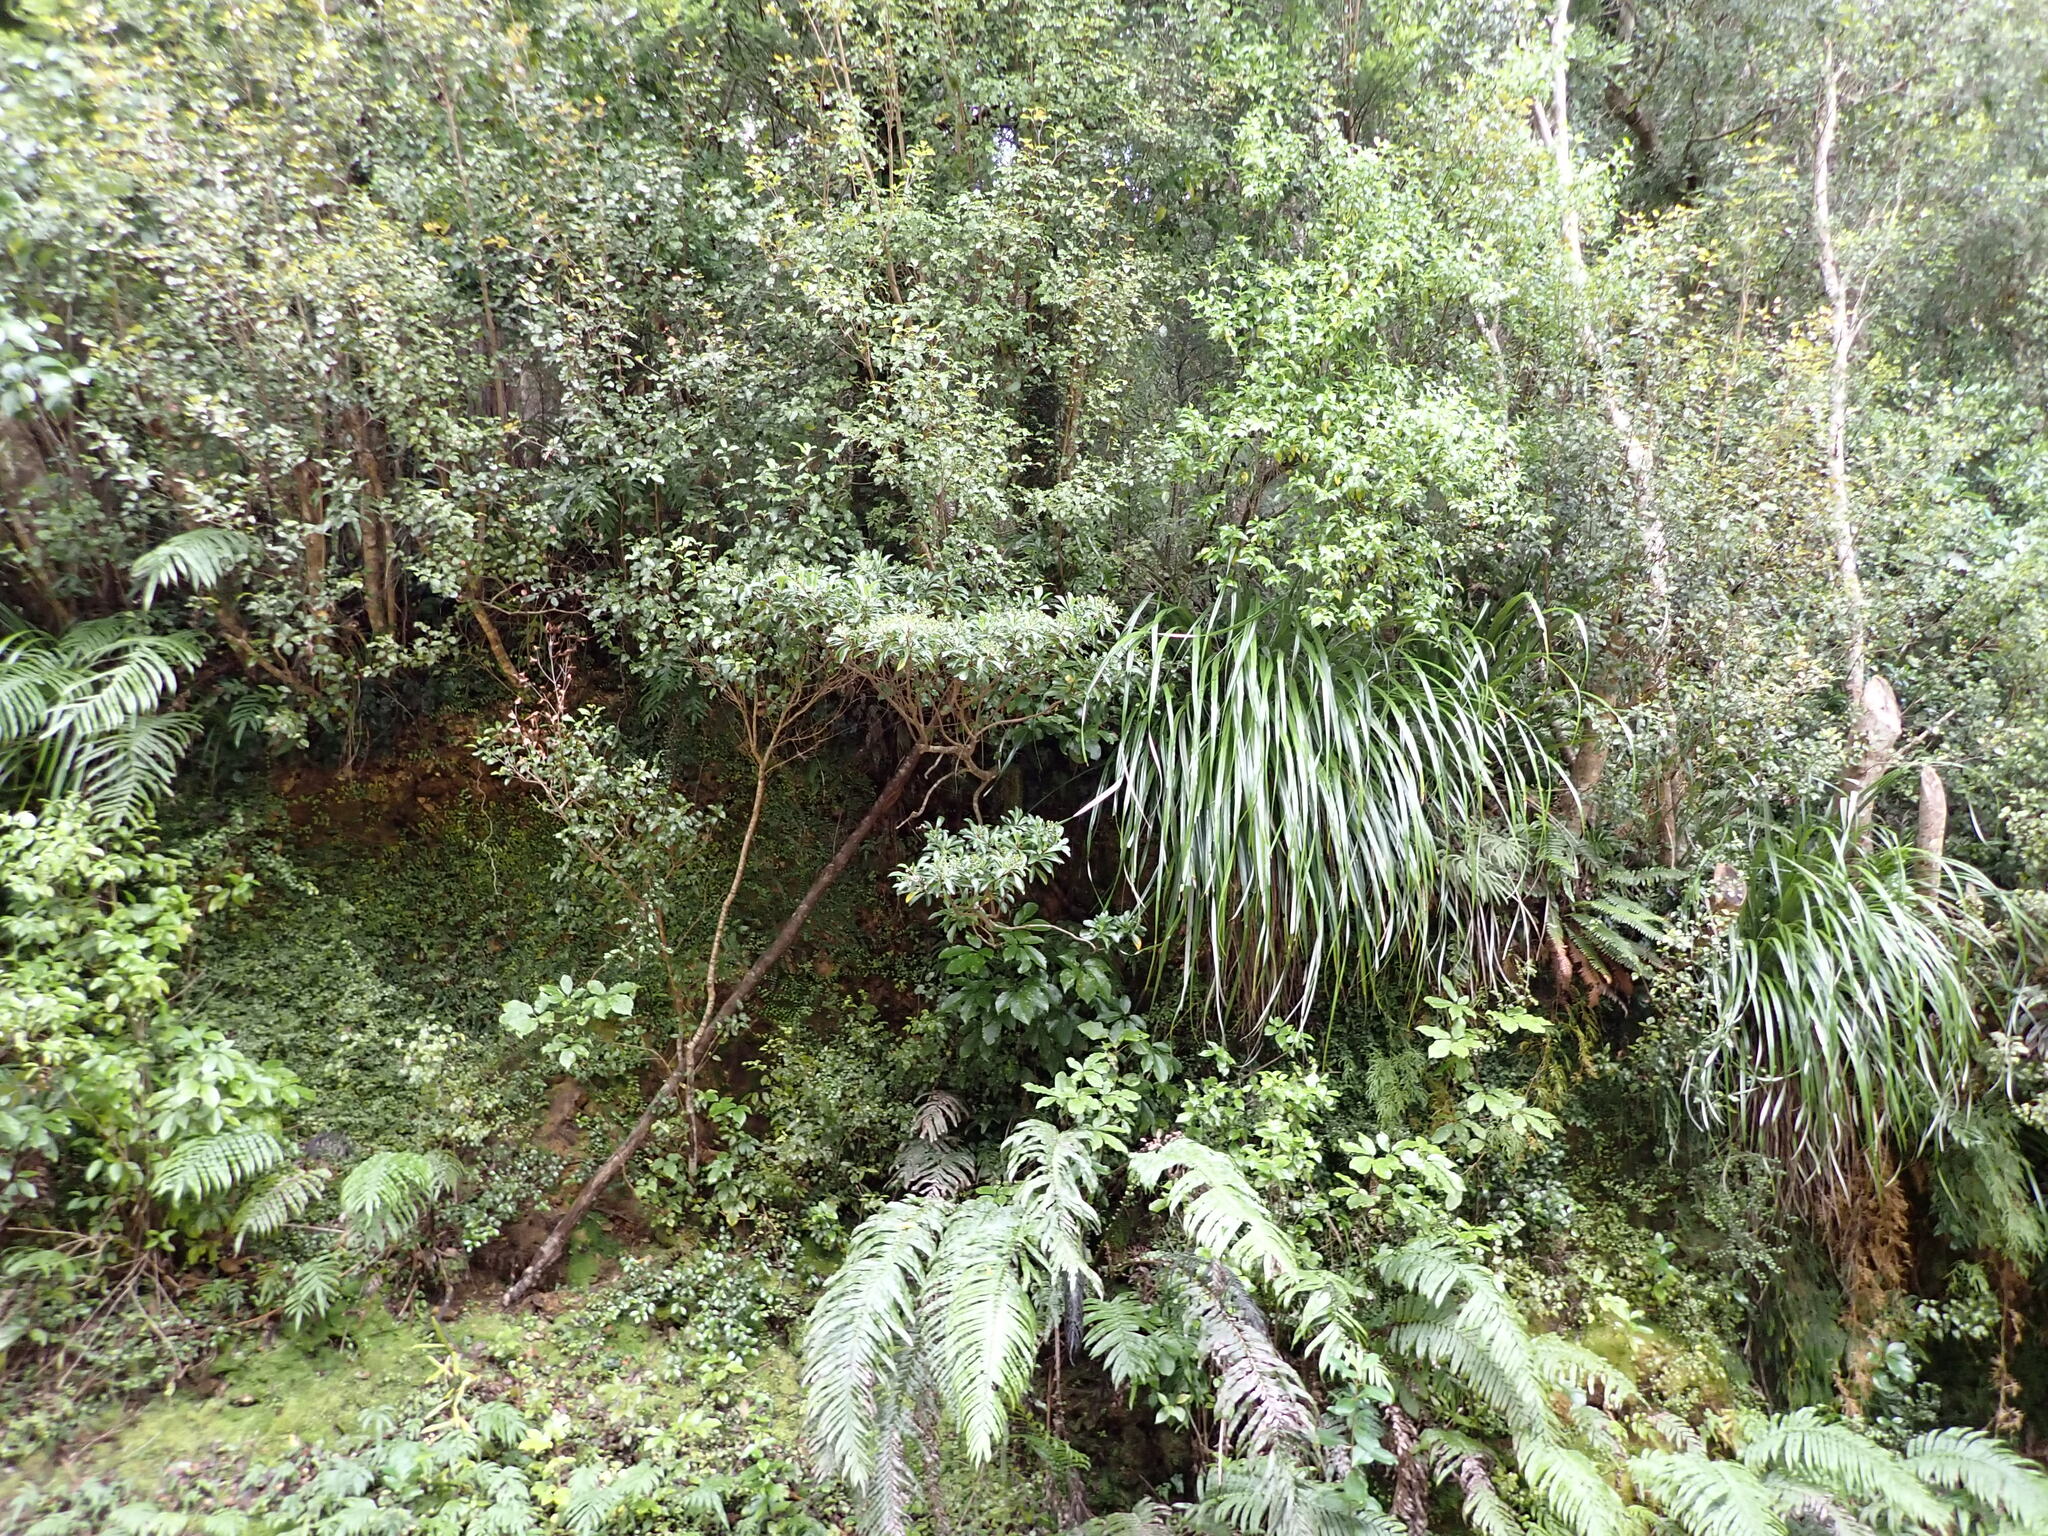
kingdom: Plantae
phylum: Tracheophyta
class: Magnoliopsida
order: Asterales
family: Asteraceae
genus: Brachyglottis
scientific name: Brachyglottis kirkii
